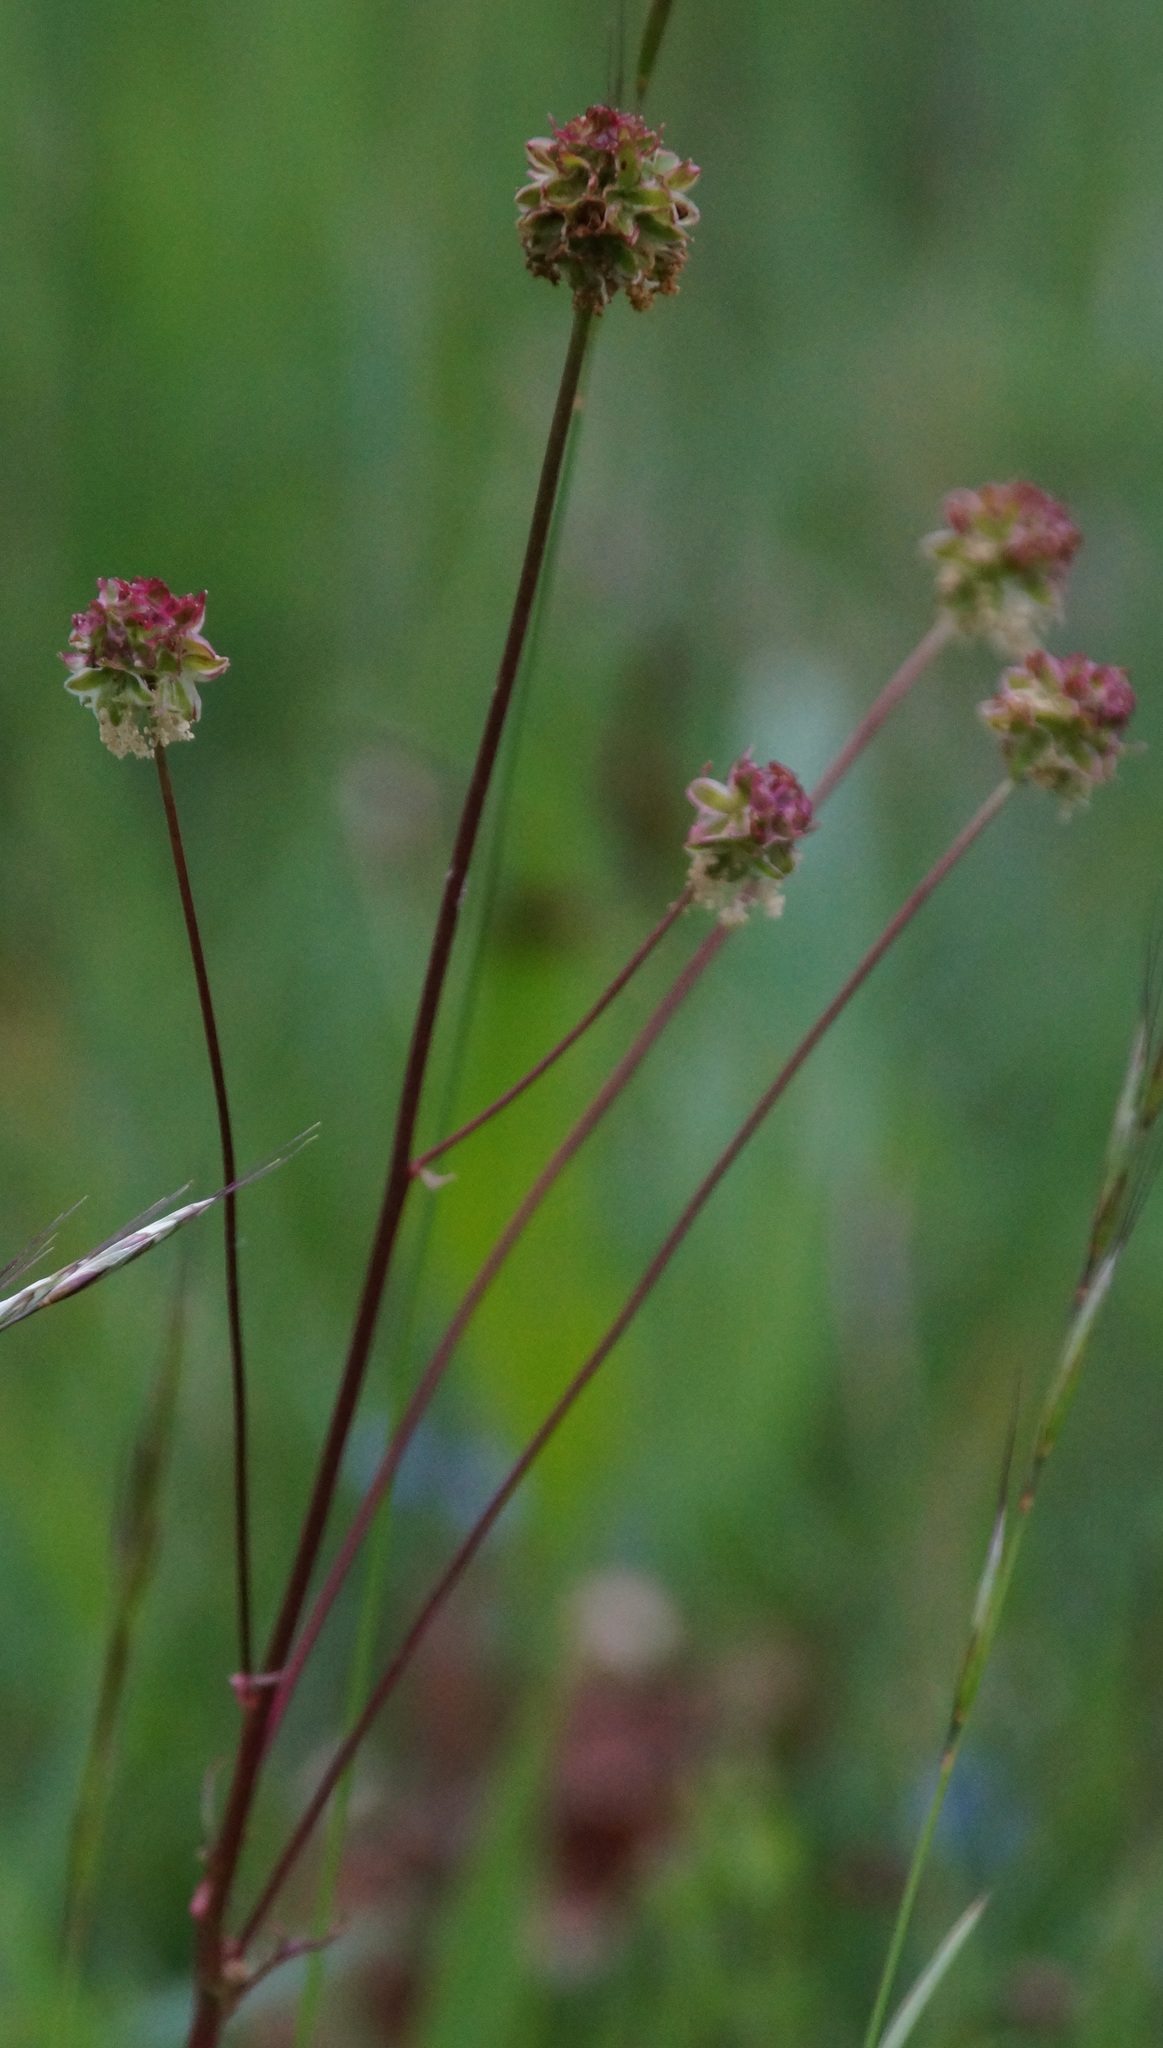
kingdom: Plantae
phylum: Tracheophyta
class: Magnoliopsida
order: Rosales
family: Rosaceae
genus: Poterium
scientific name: Poterium sanguisorba
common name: Salad burnet
